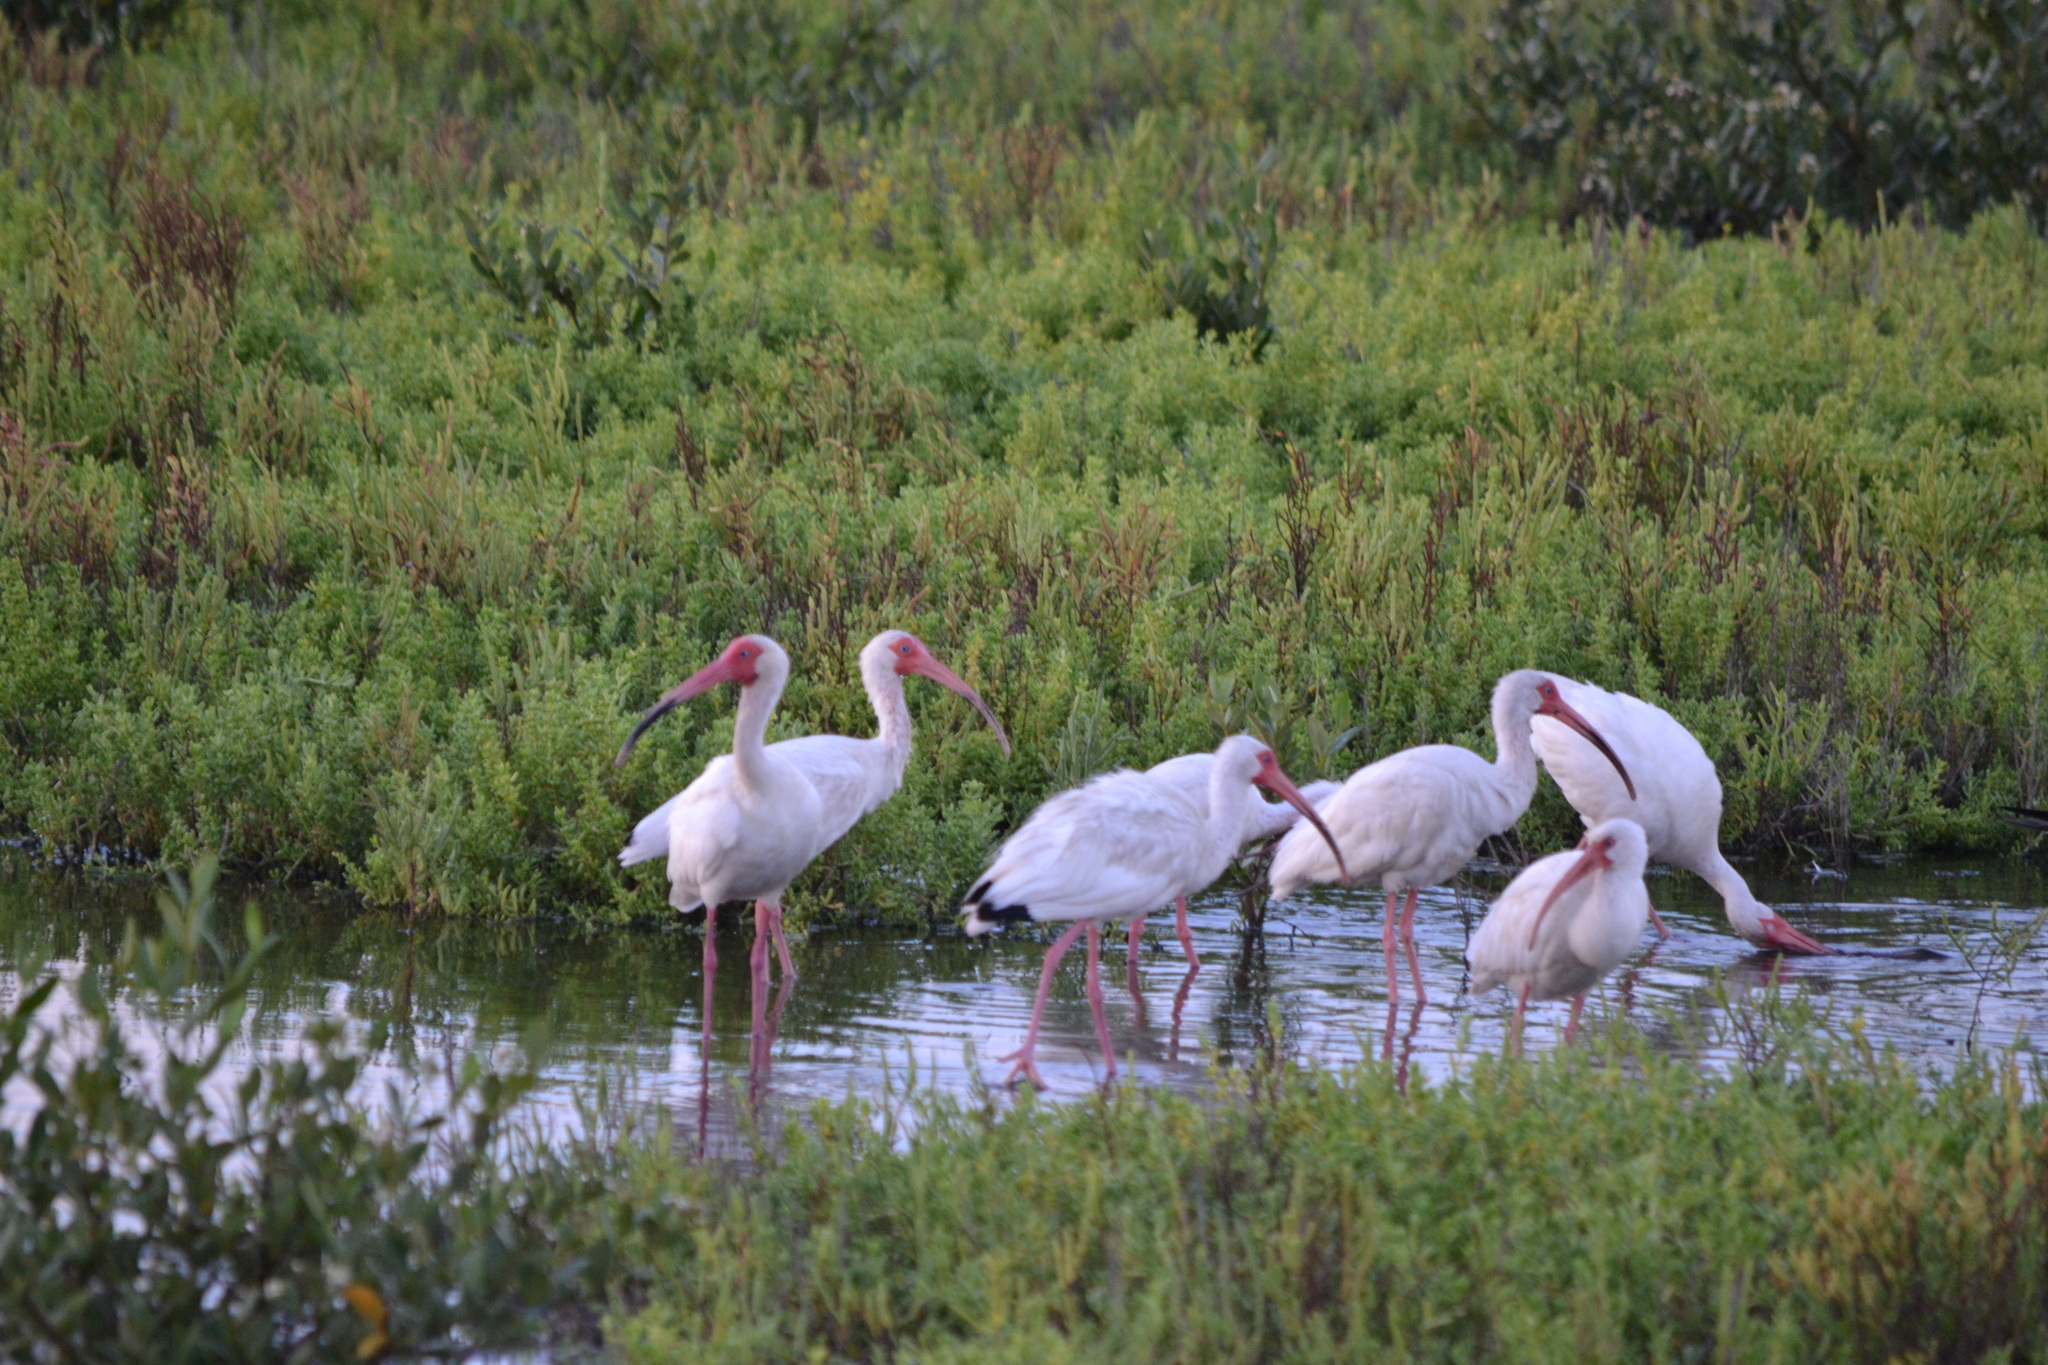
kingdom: Animalia
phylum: Chordata
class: Aves
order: Pelecaniformes
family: Threskiornithidae
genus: Eudocimus
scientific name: Eudocimus albus
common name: White ibis
